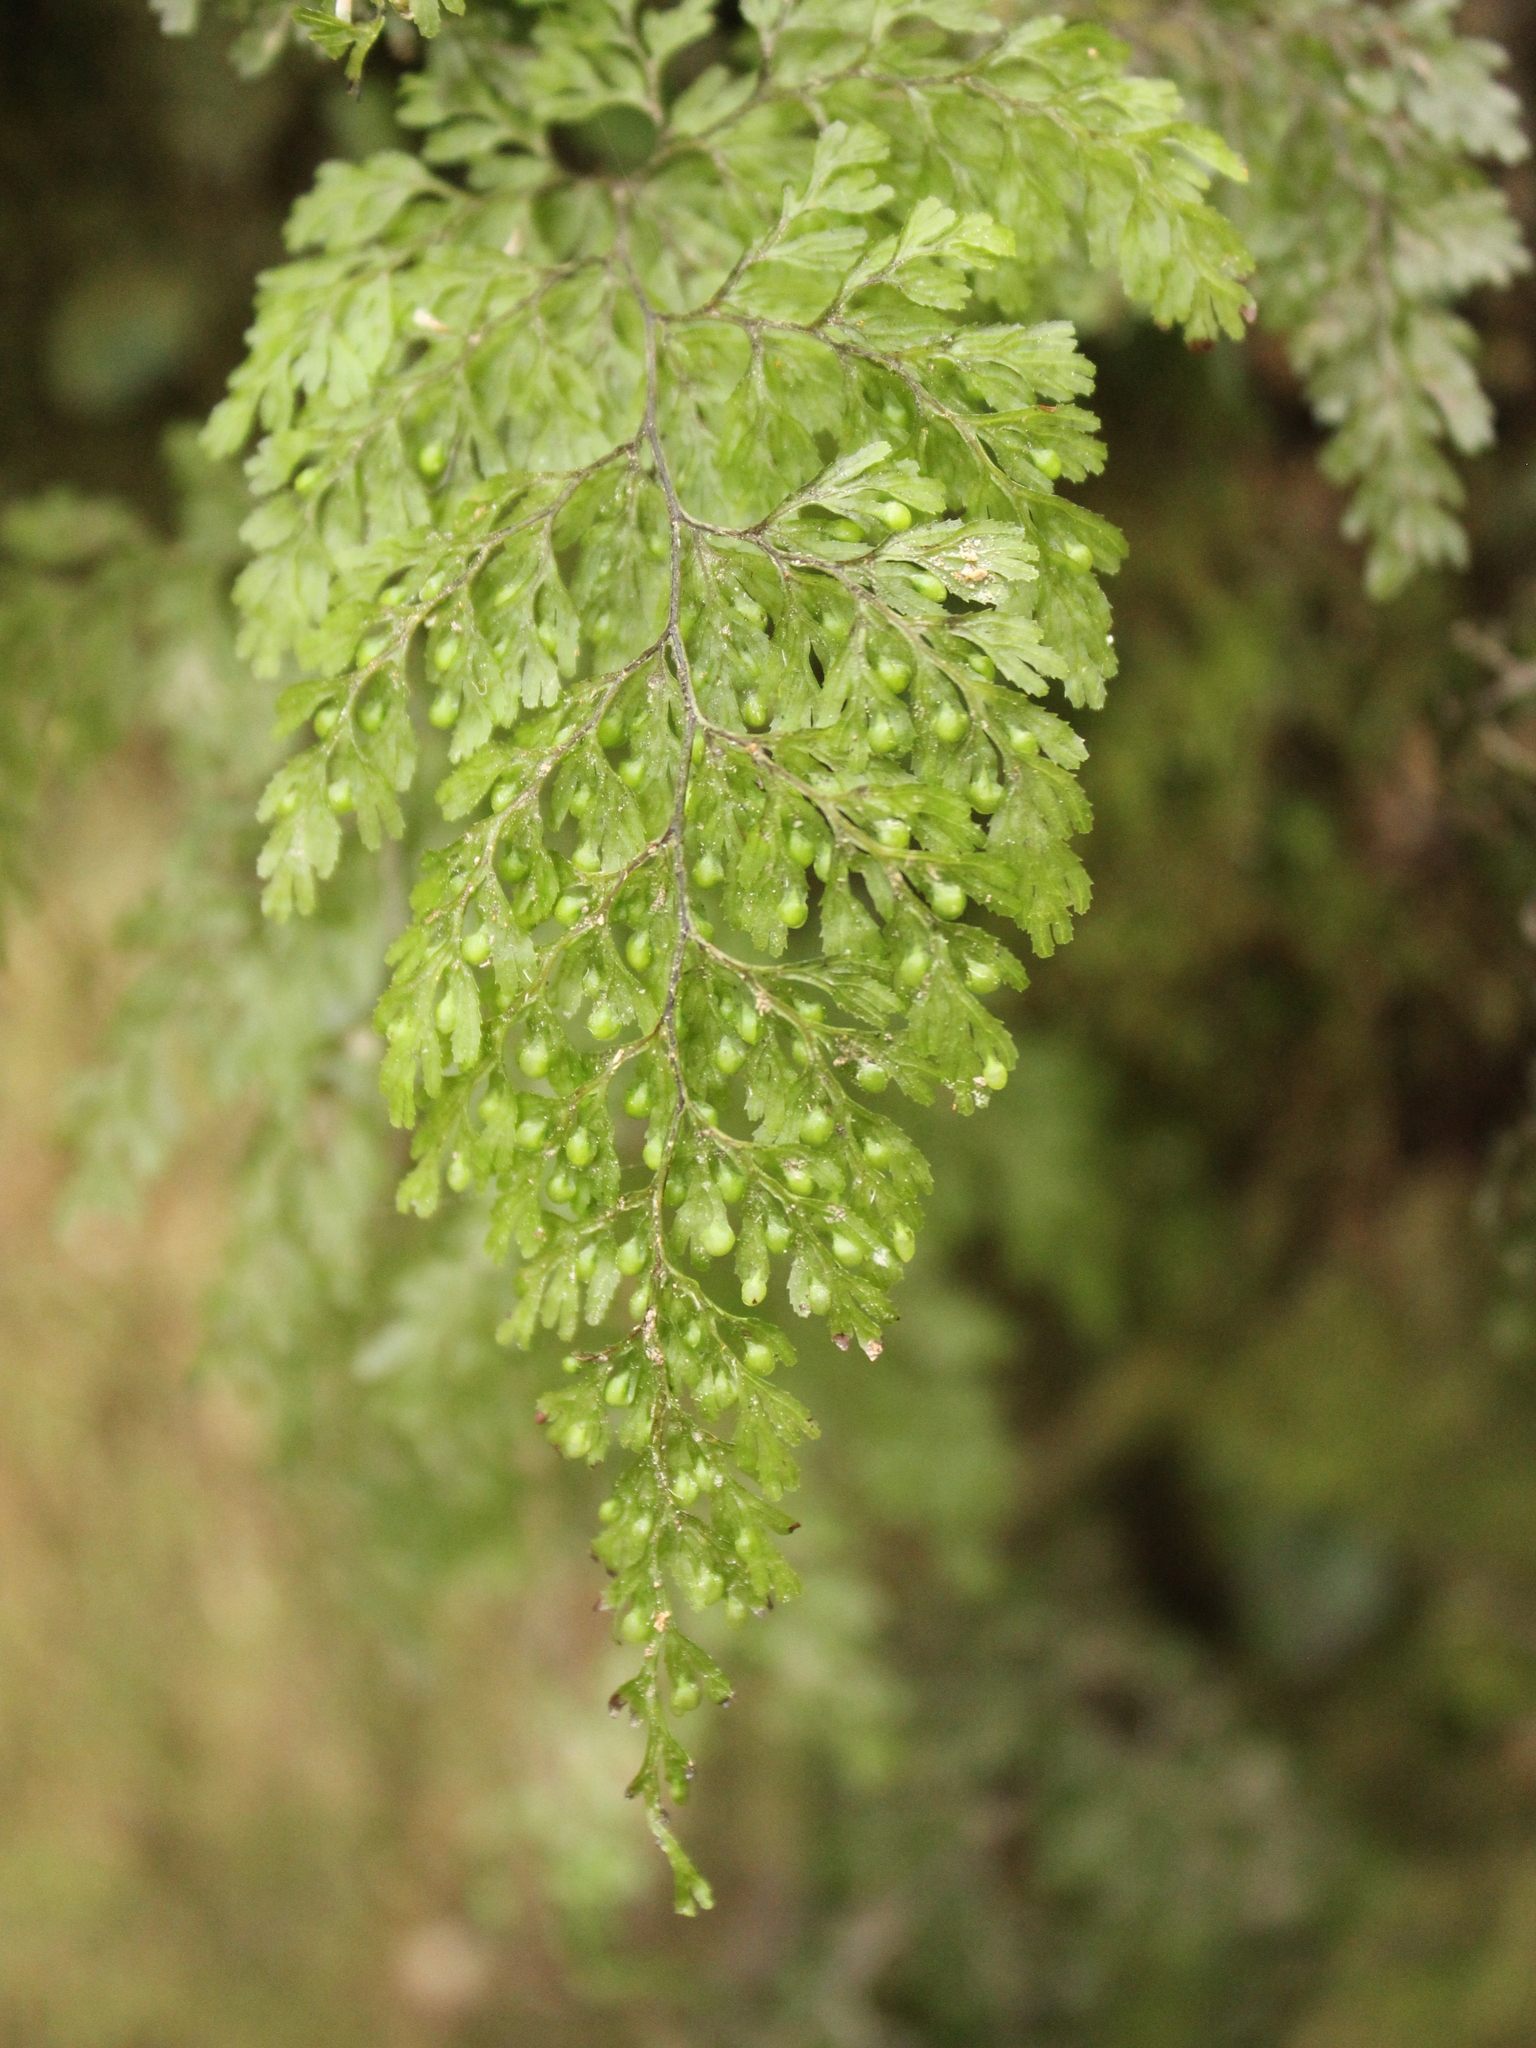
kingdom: Plantae
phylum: Tracheophyta
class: Polypodiopsida
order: Hymenophyllales
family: Hymenophyllaceae
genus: Hymenophyllum
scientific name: Hymenophyllum bivalve
